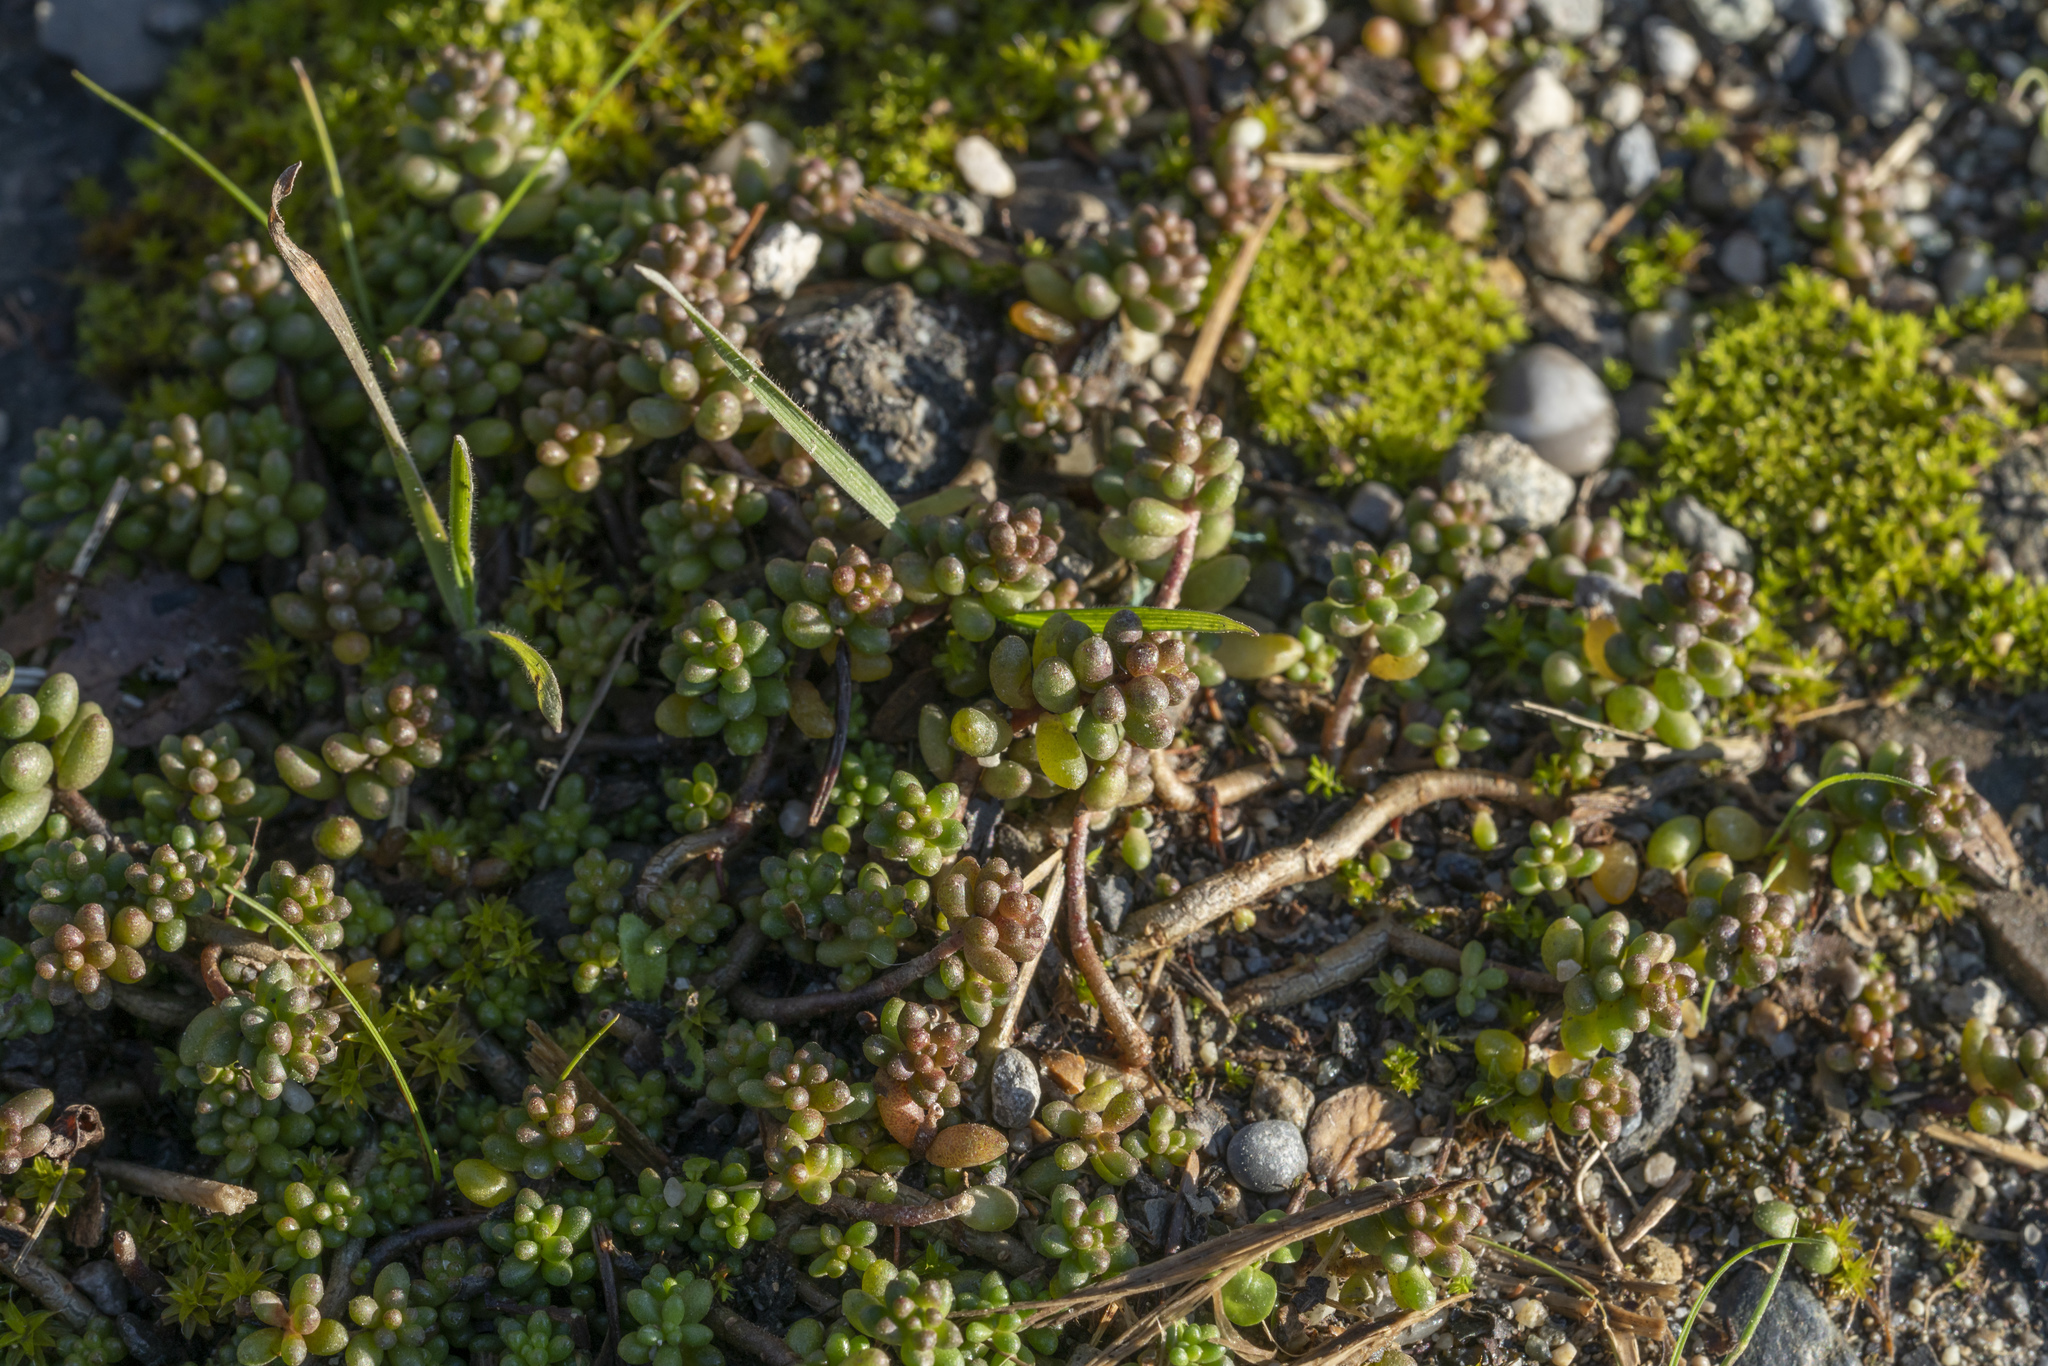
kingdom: Plantae
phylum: Tracheophyta
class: Magnoliopsida
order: Saxifragales
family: Crassulaceae
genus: Sedum
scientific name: Sedum album
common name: White stonecrop
